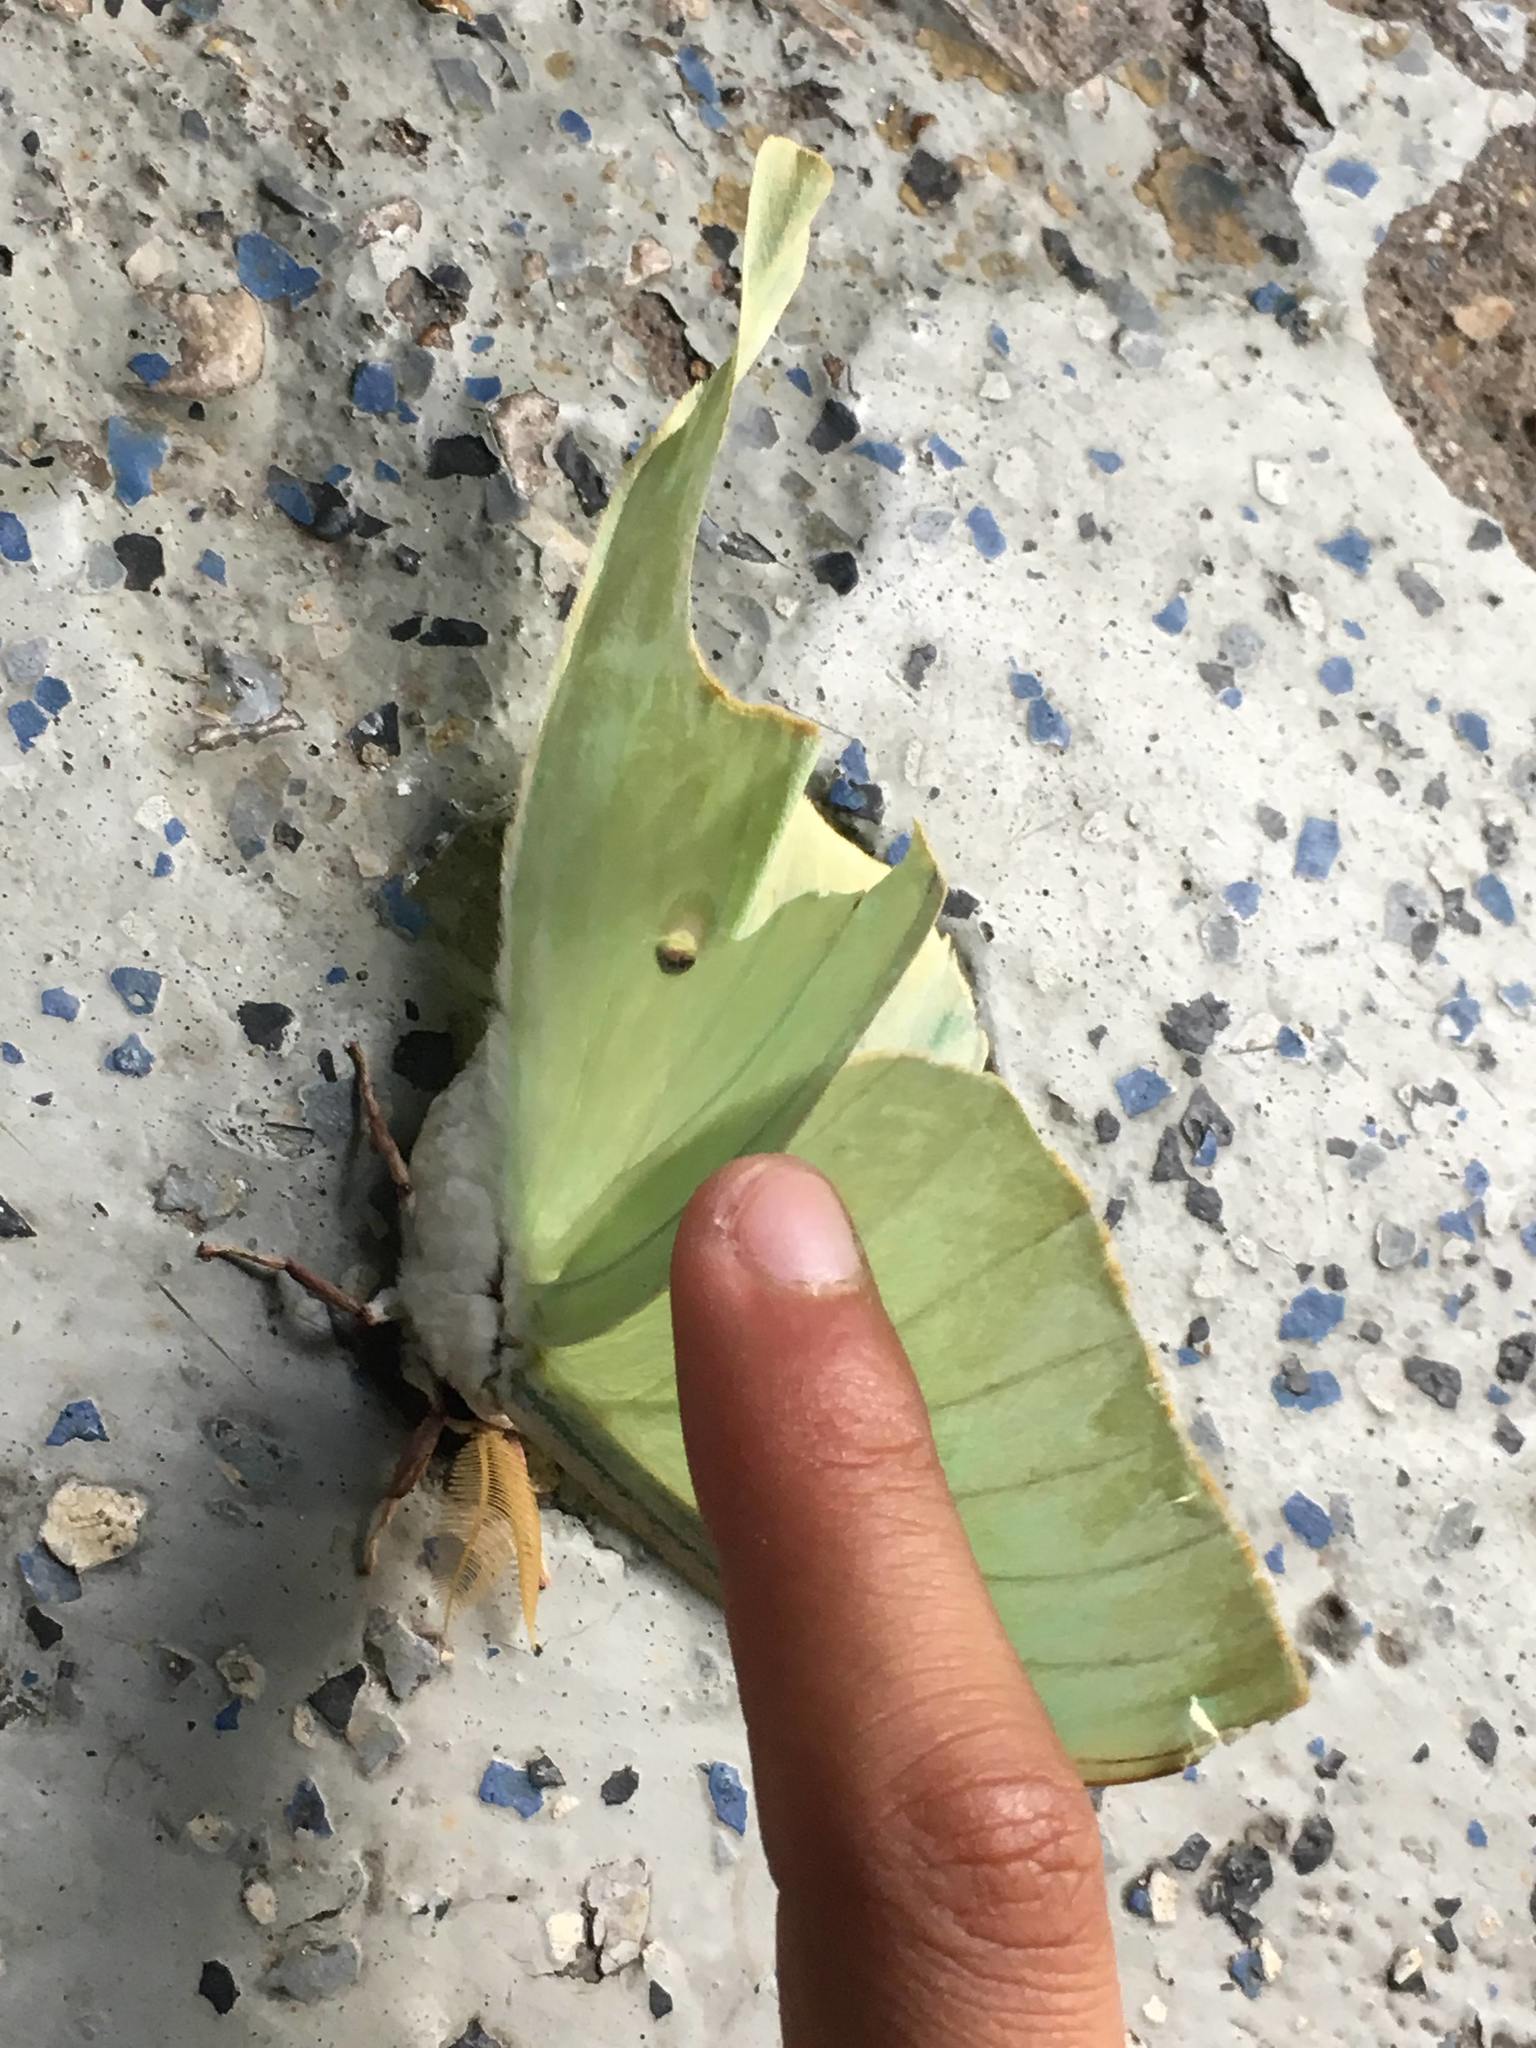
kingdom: Animalia
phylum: Arthropoda
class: Insecta
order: Lepidoptera
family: Saturniidae
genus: Actias
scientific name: Actias luna
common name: Luna moth
